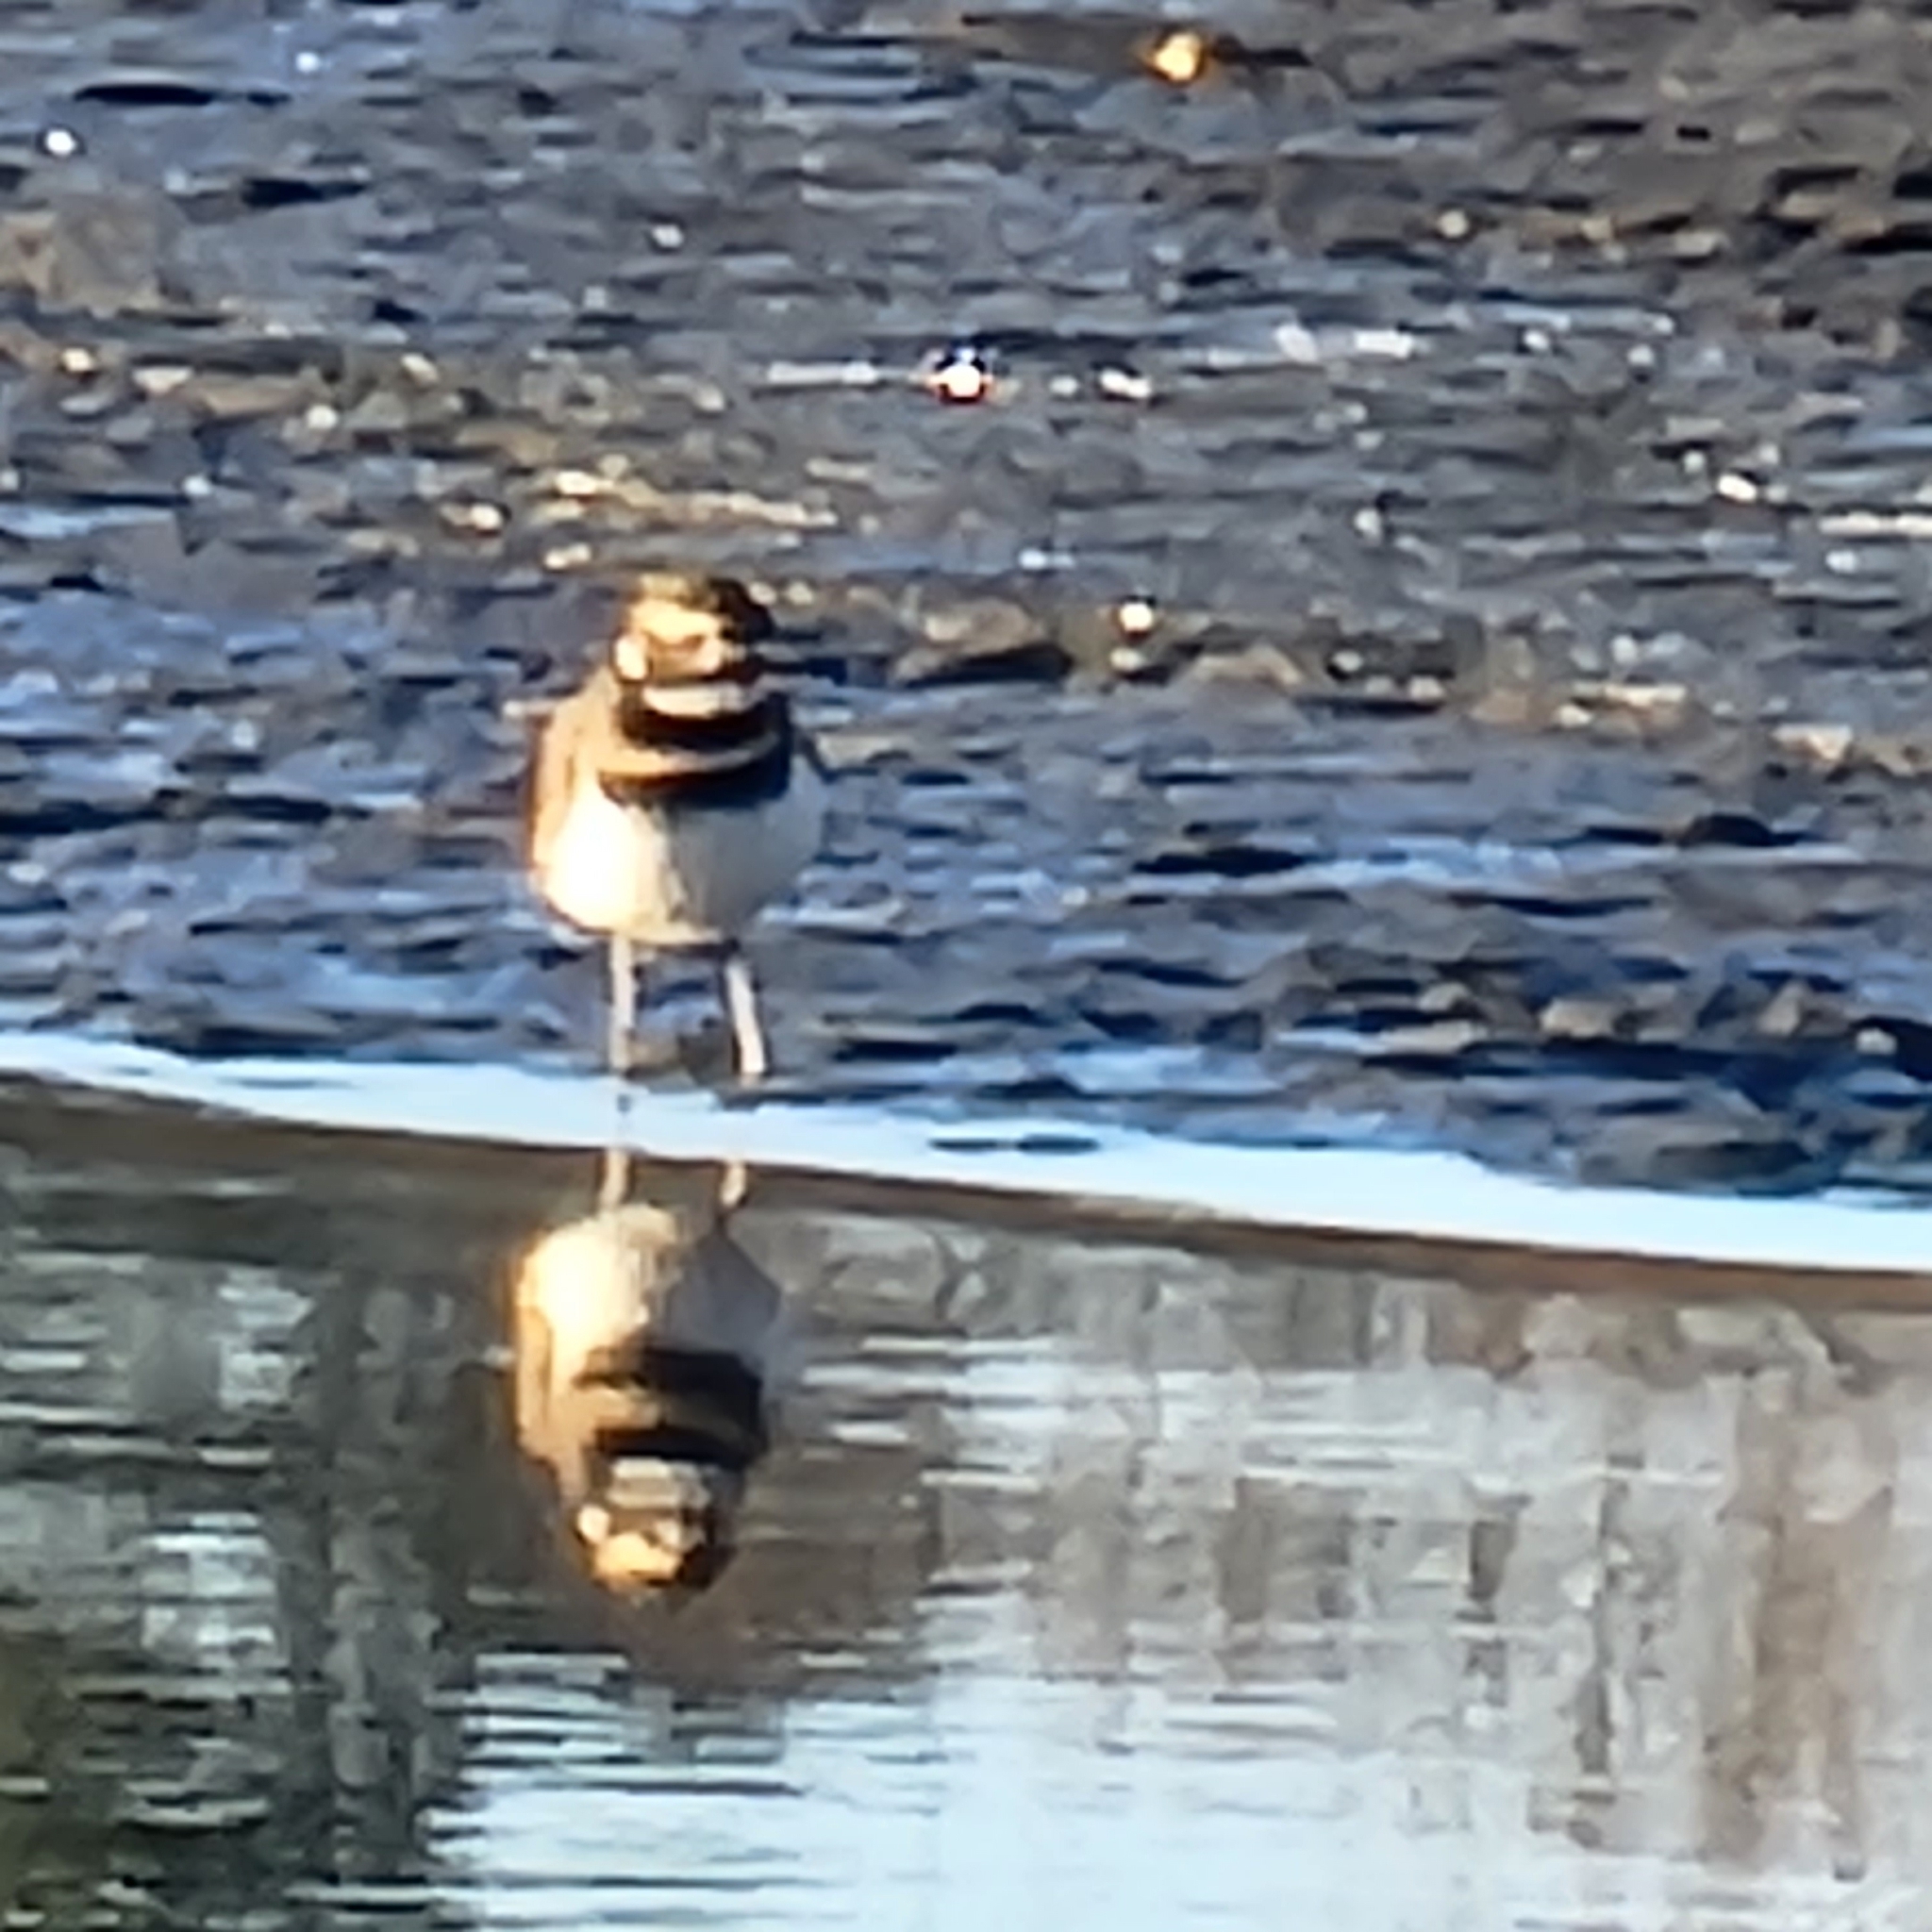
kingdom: Animalia
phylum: Chordata
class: Aves
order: Charadriiformes
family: Charadriidae
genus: Charadrius
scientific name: Charadrius vociferus
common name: Killdeer
